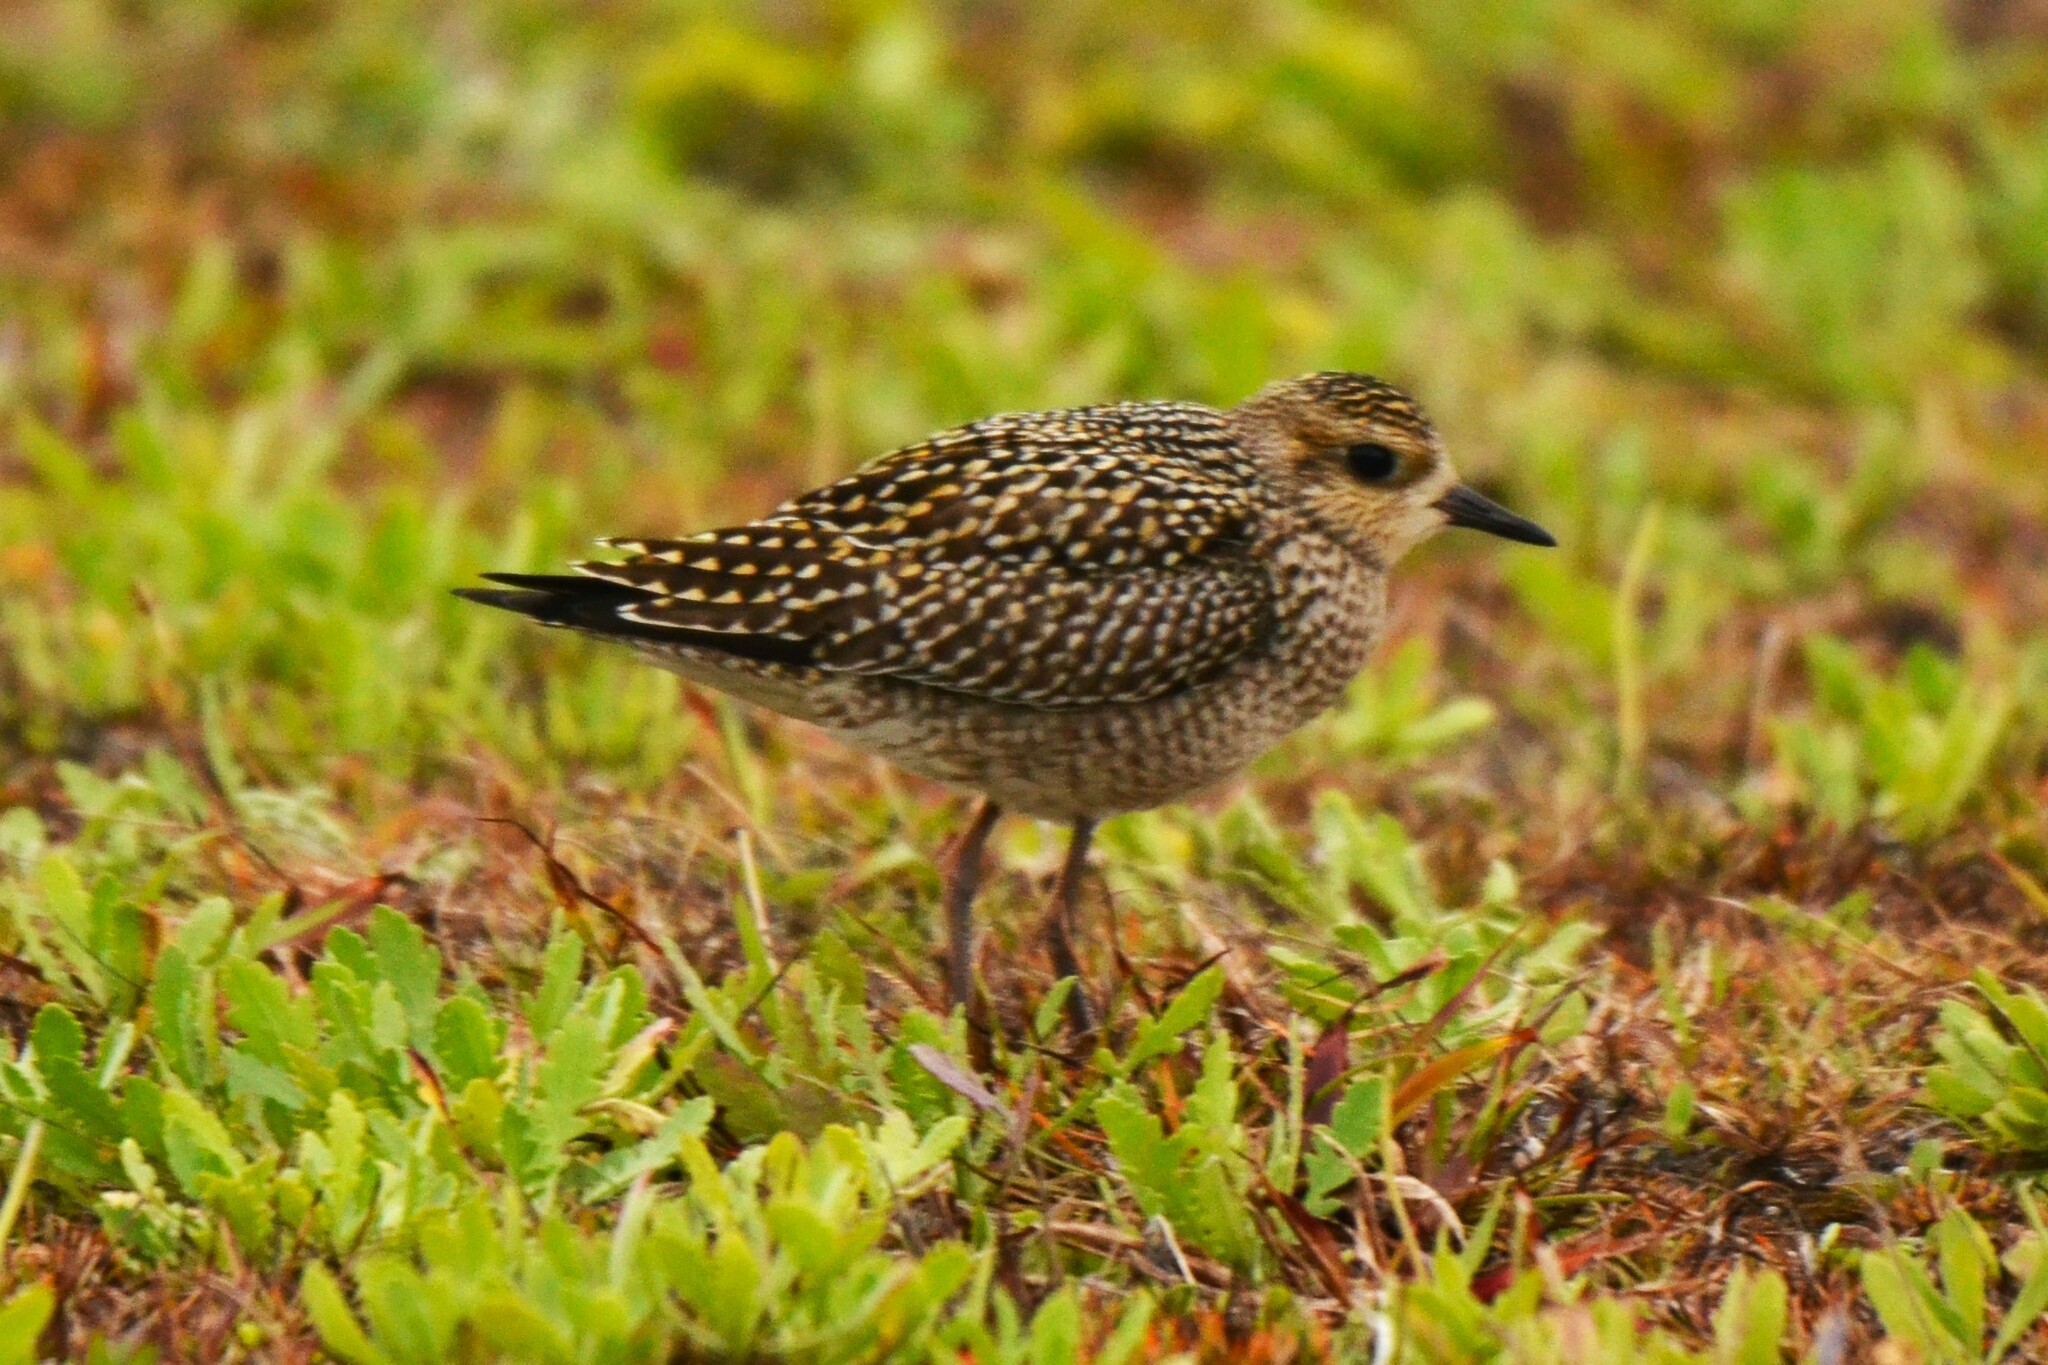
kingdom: Animalia
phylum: Chordata
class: Aves
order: Charadriiformes
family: Charadriidae
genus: Pluvialis
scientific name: Pluvialis fulva
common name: Pacific golden plover
